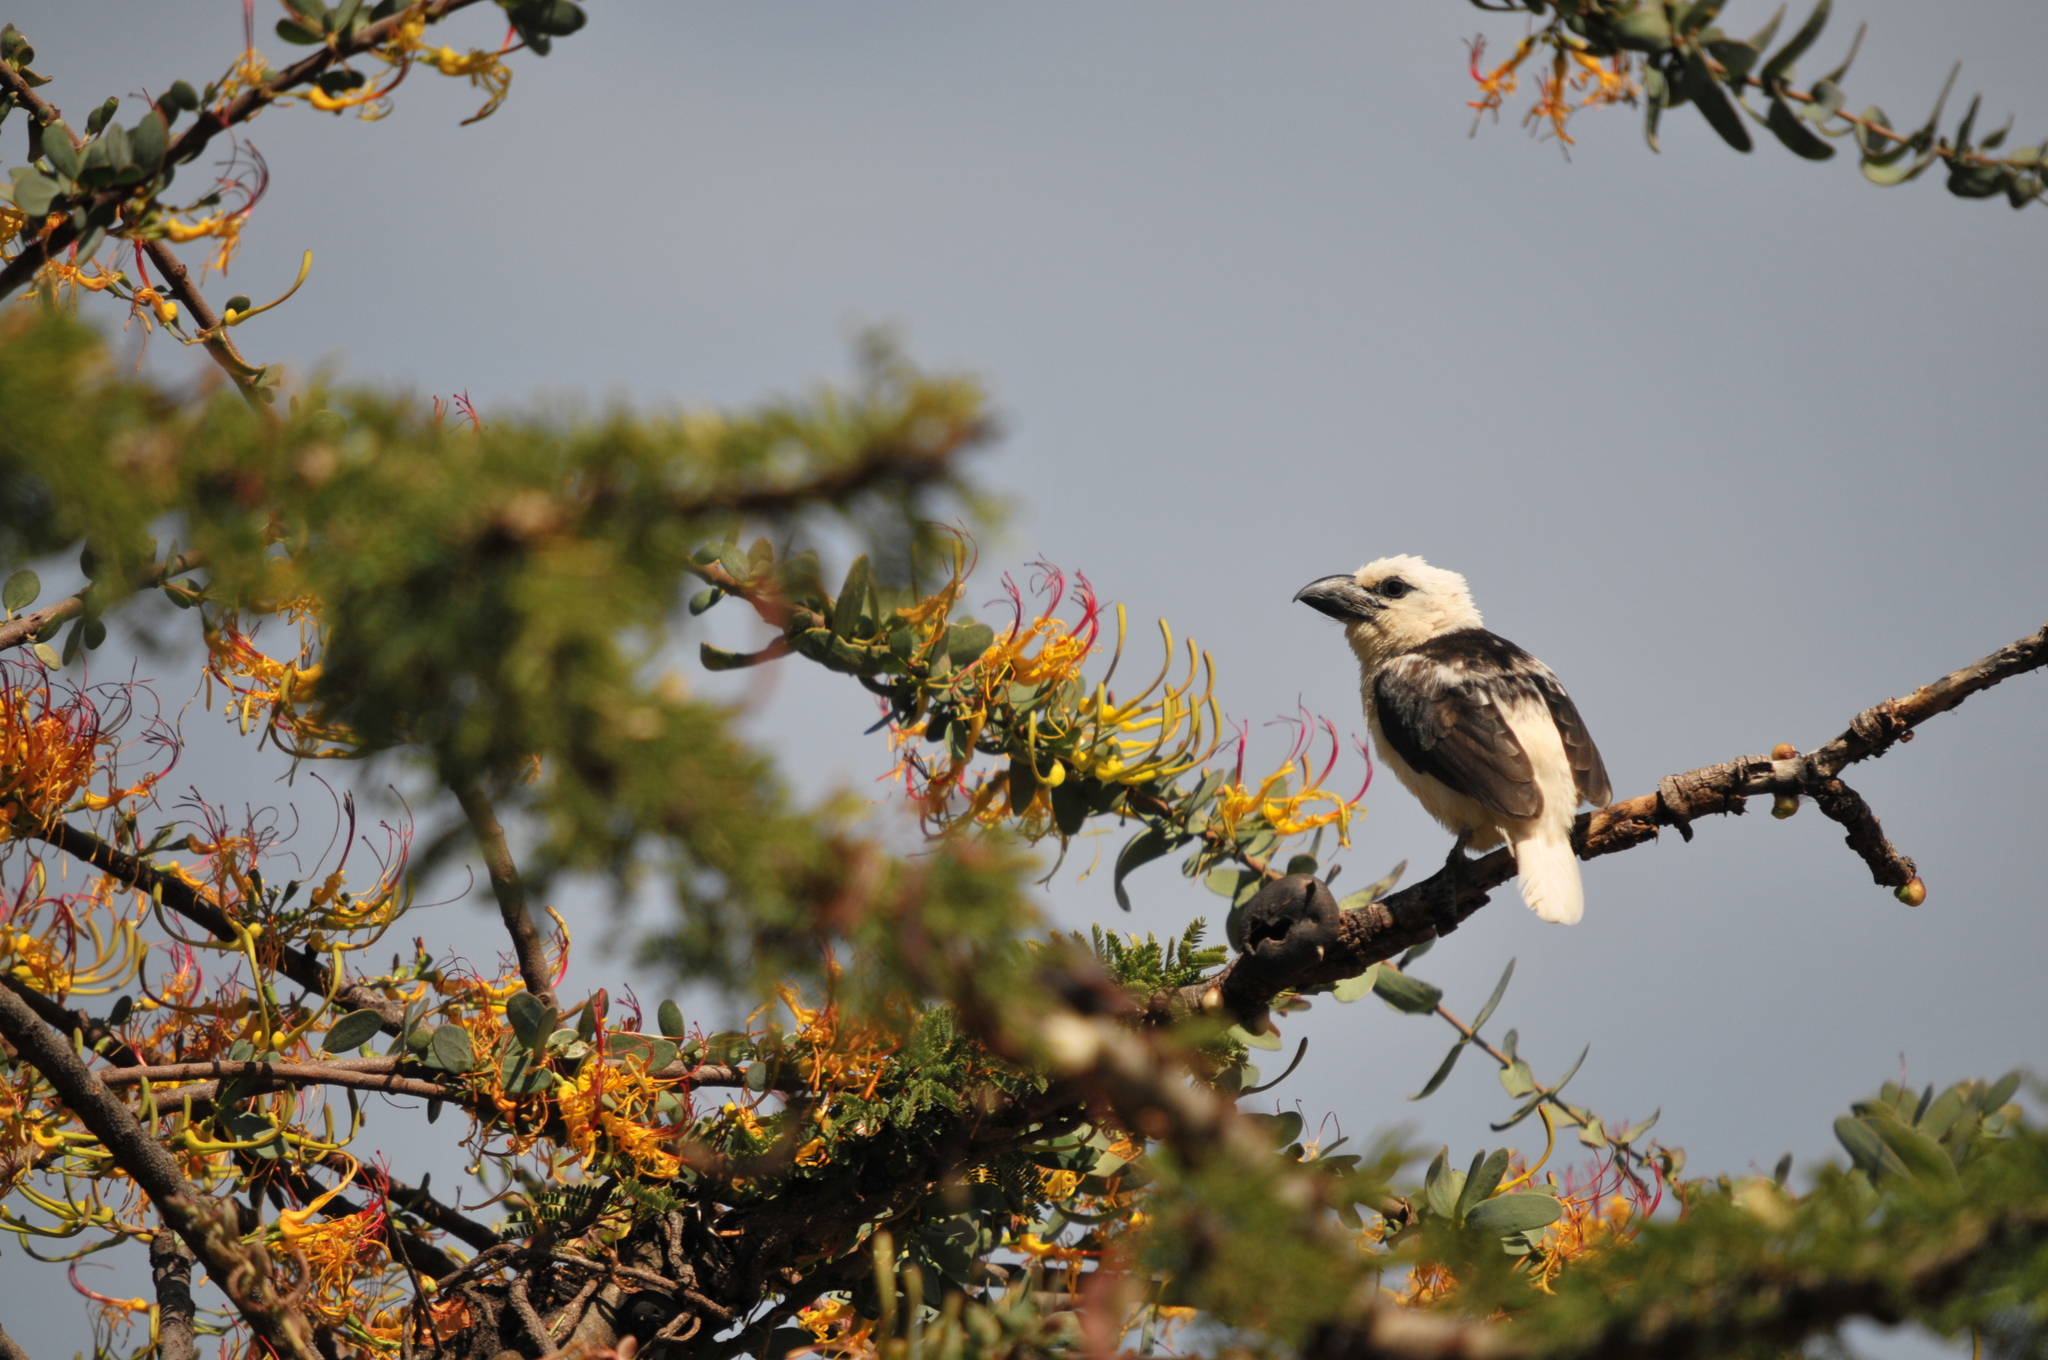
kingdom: Animalia
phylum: Chordata
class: Aves
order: Piciformes
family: Lybiidae
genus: Lybius
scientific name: Lybius leucocephalus
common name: White-headed barbet
